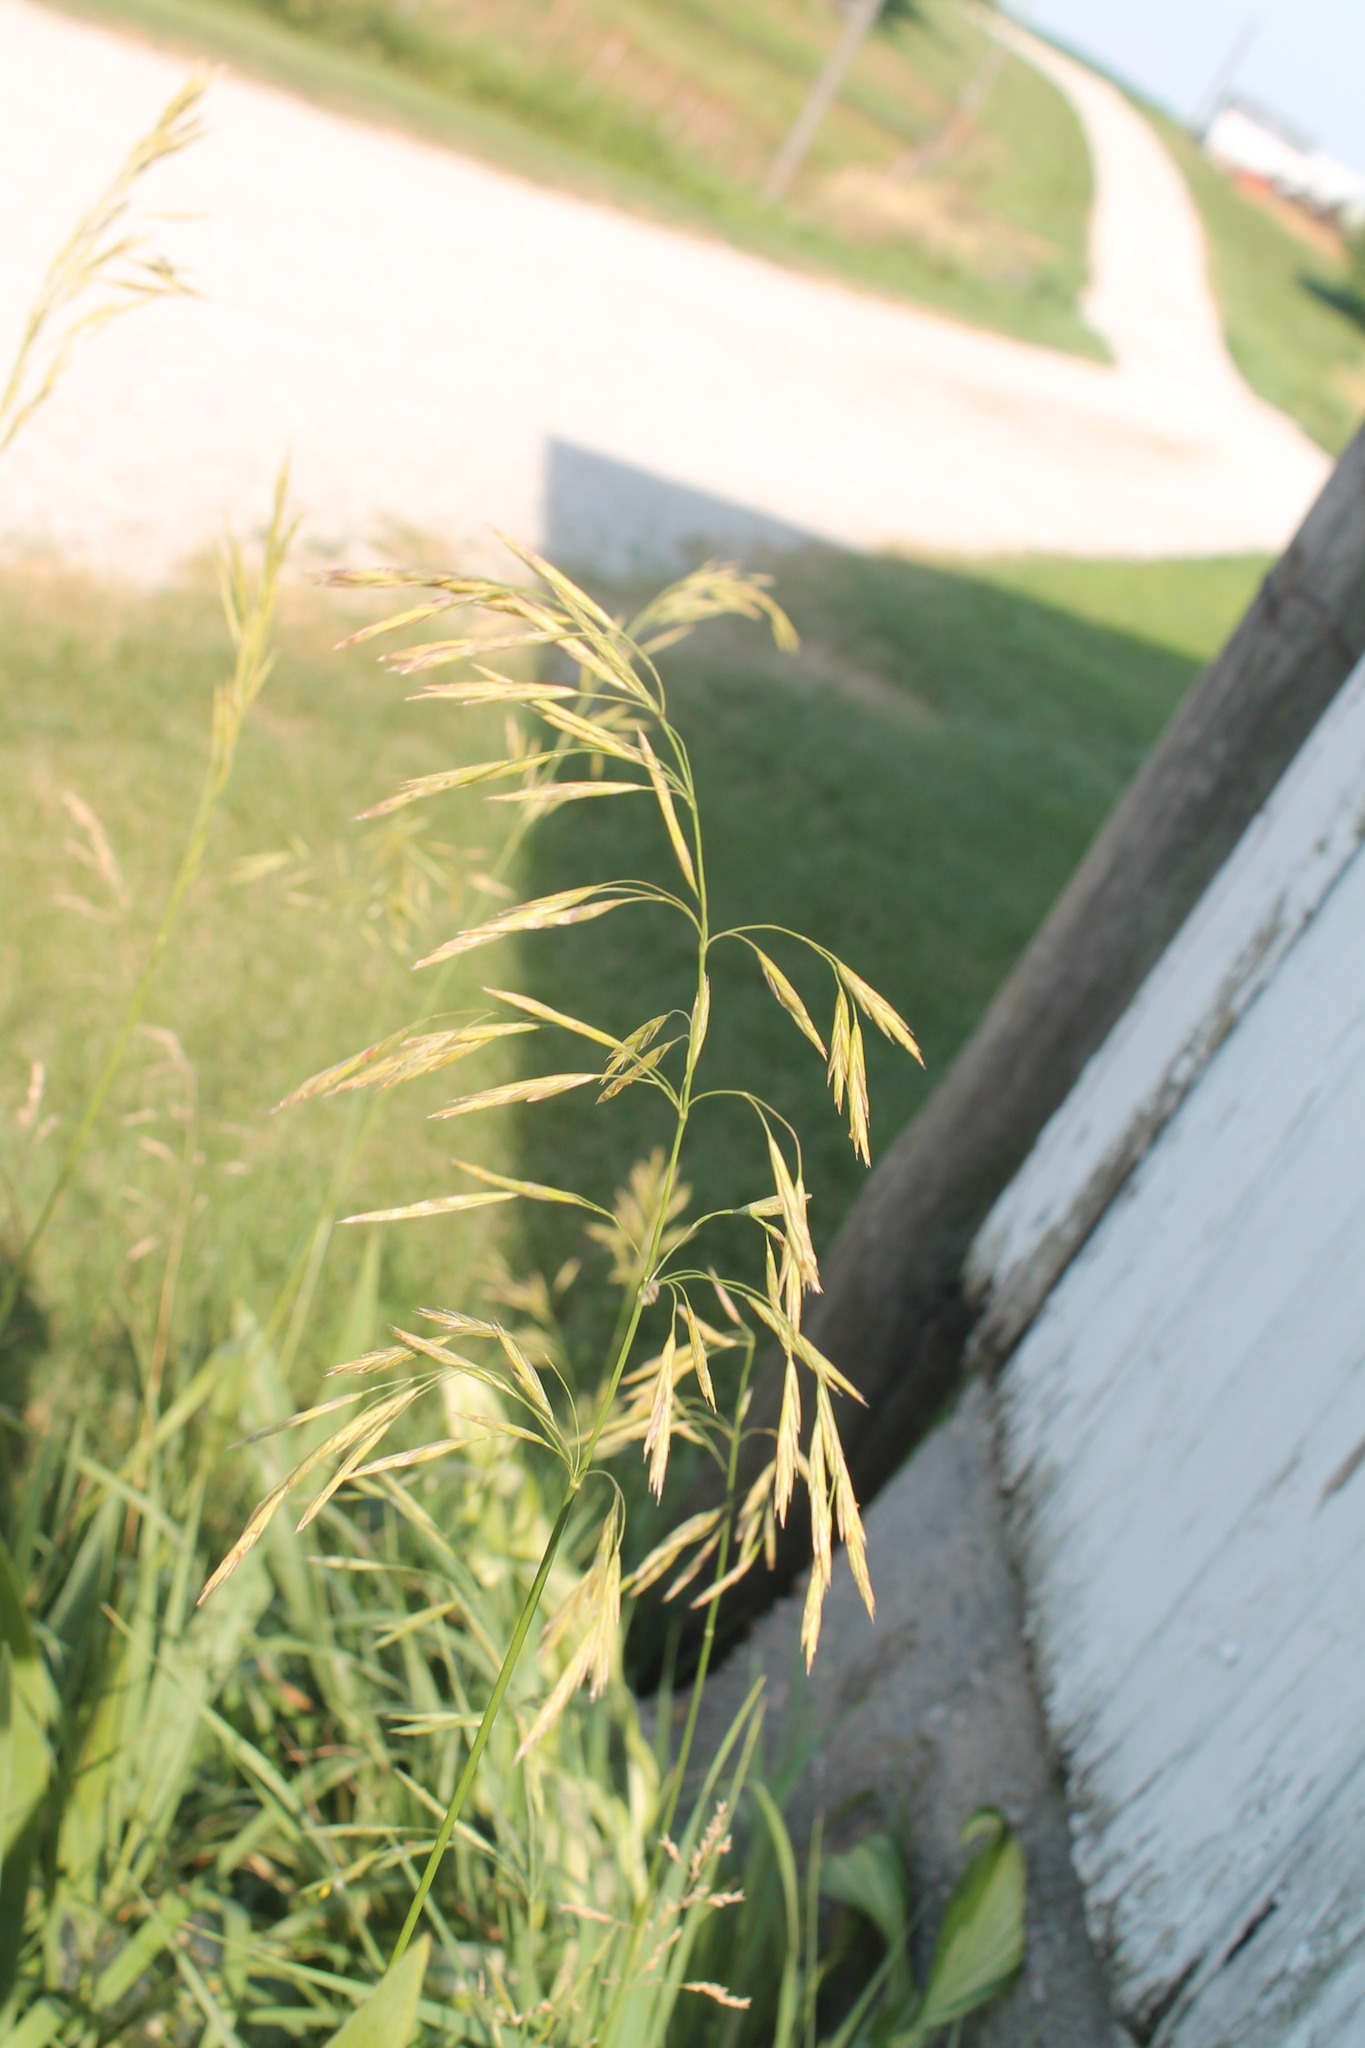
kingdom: Plantae
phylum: Tracheophyta
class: Liliopsida
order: Poales
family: Poaceae
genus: Bromus
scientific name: Bromus inermis
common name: Smooth brome
